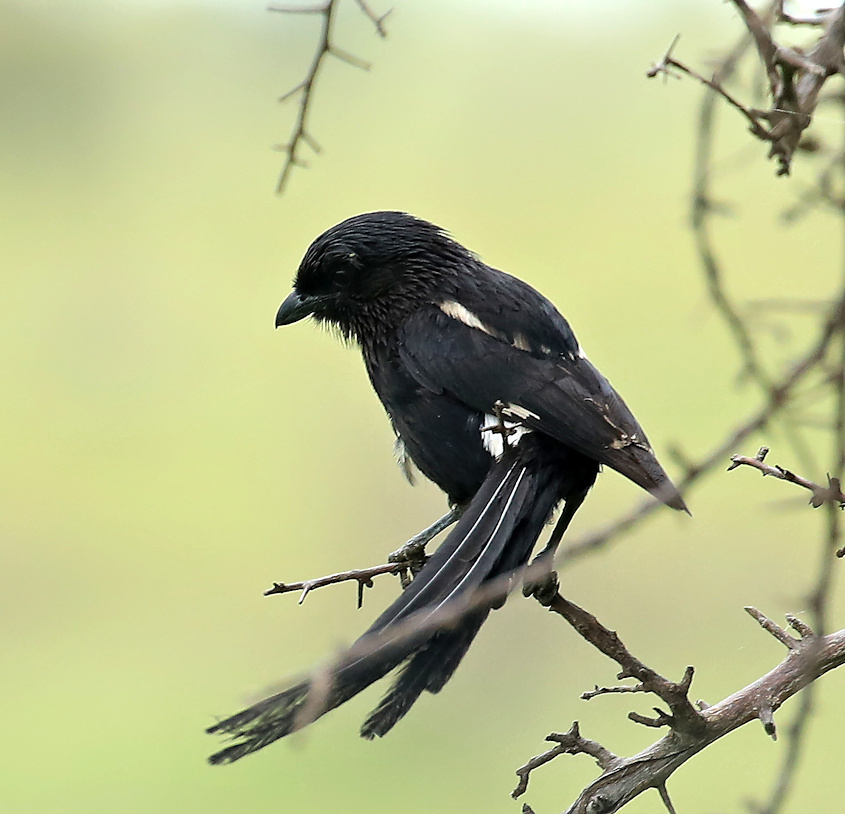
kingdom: Animalia
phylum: Chordata
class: Aves
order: Passeriformes
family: Laniidae
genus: Urolestes
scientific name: Urolestes melanoleucus
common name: Magpie shrike
